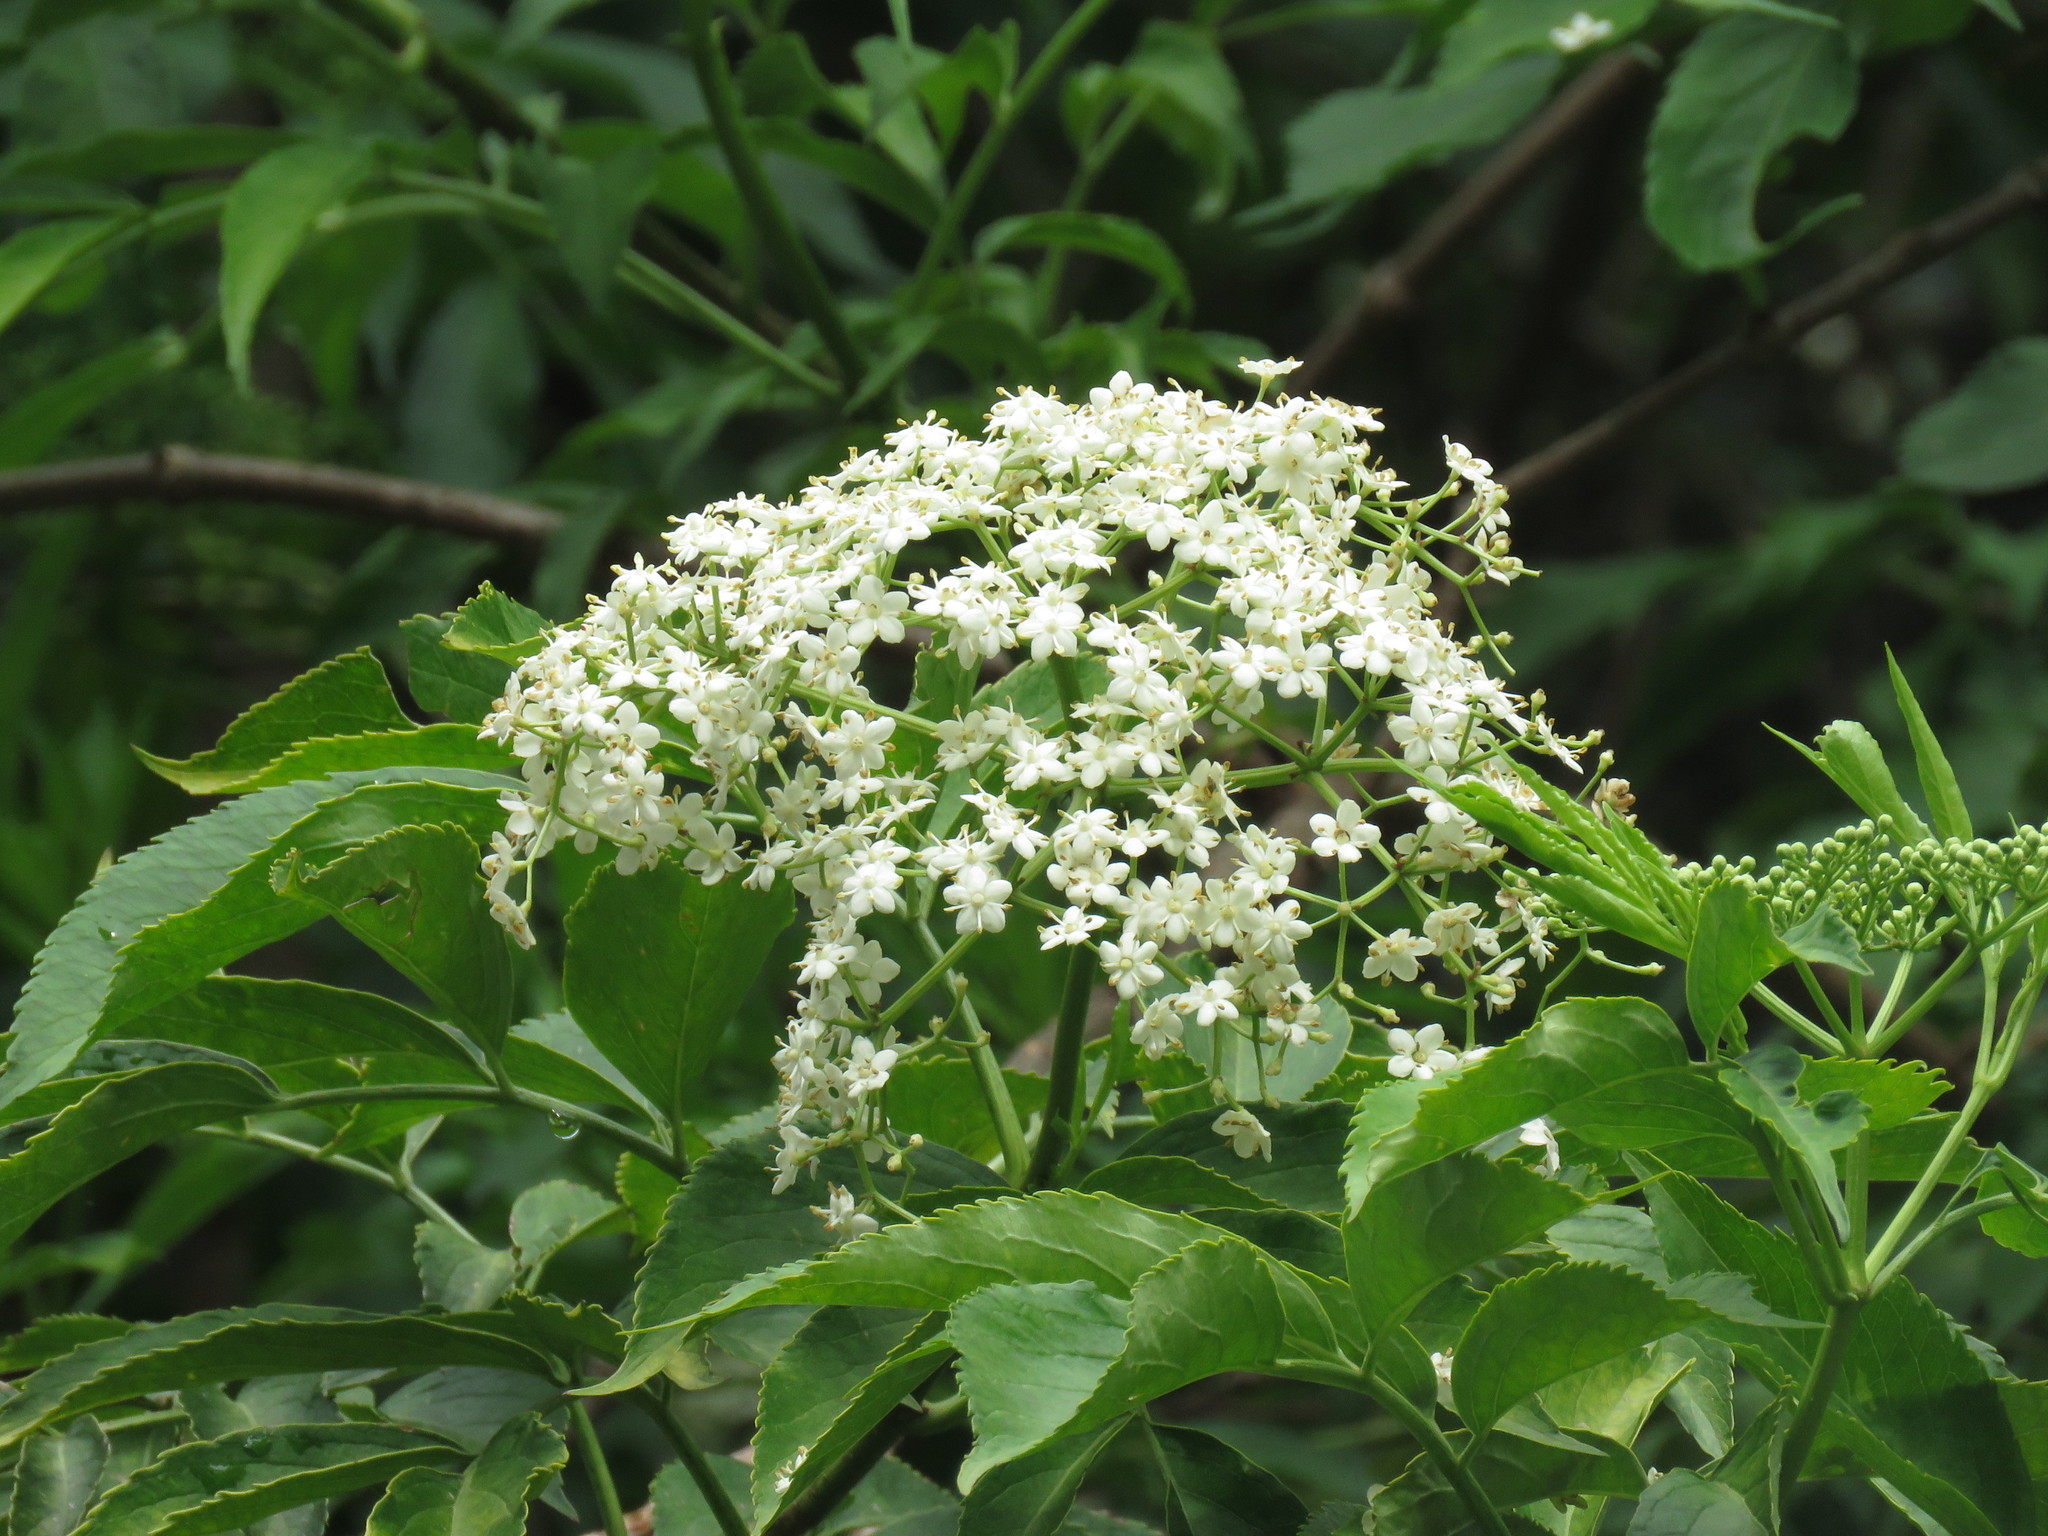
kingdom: Plantae
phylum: Tracheophyta
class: Magnoliopsida
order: Dipsacales
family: Viburnaceae
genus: Sambucus
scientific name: Sambucus nigra
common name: Elder
